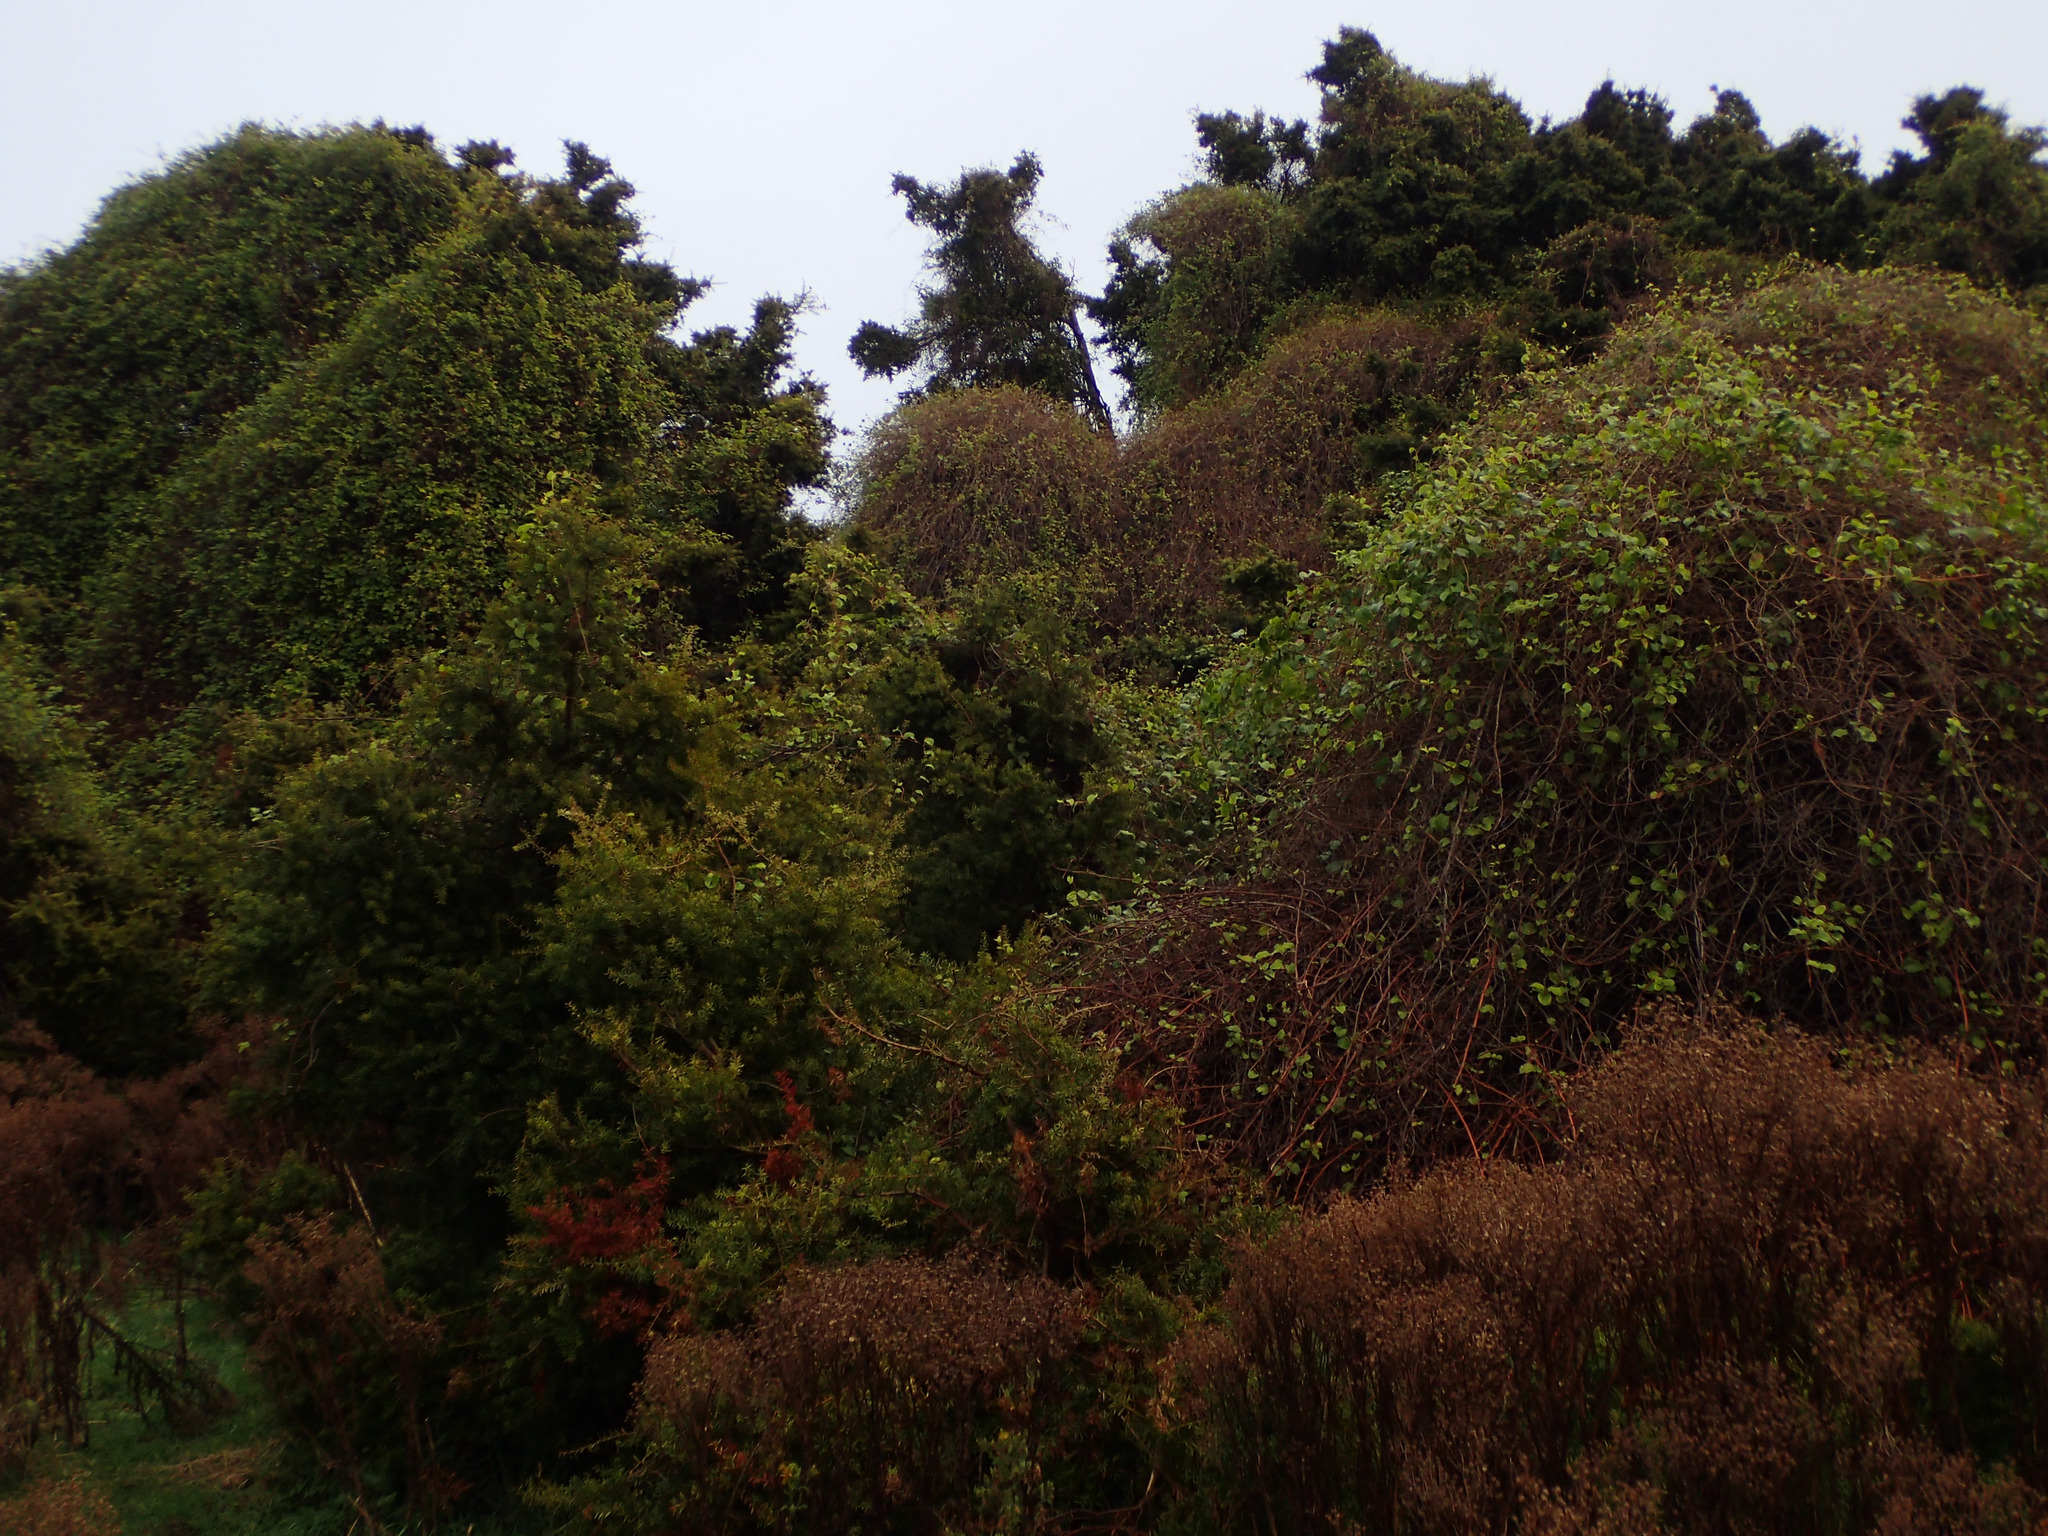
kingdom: Plantae
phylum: Tracheophyta
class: Magnoliopsida
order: Caryophyllales
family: Polygonaceae
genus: Muehlenbeckia
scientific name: Muehlenbeckia australis
